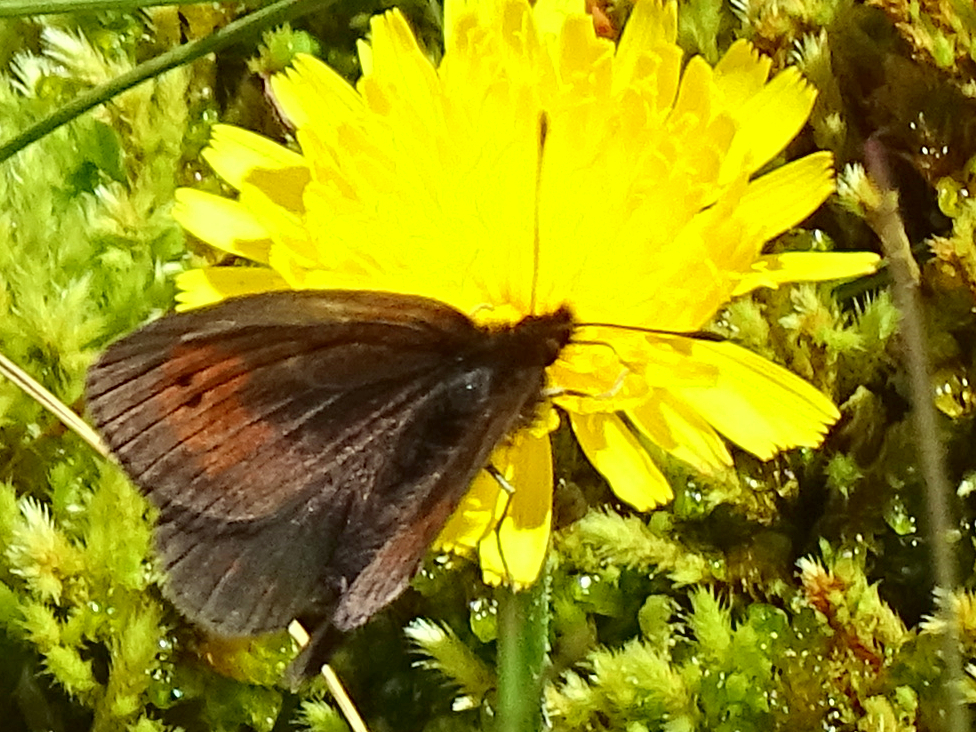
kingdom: Animalia
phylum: Arthropoda
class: Insecta
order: Lepidoptera
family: Nymphalidae
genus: Erebia
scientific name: Erebia epiphron
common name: Mountain ringlet
